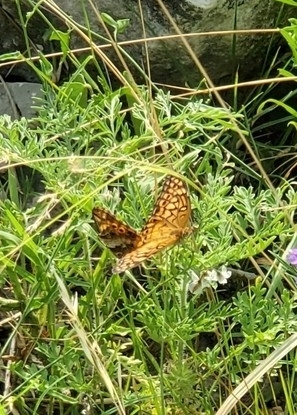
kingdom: Animalia
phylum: Arthropoda
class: Insecta
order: Lepidoptera
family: Nymphalidae
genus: Euptoieta
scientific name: Euptoieta claudia
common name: Variegated fritillary
